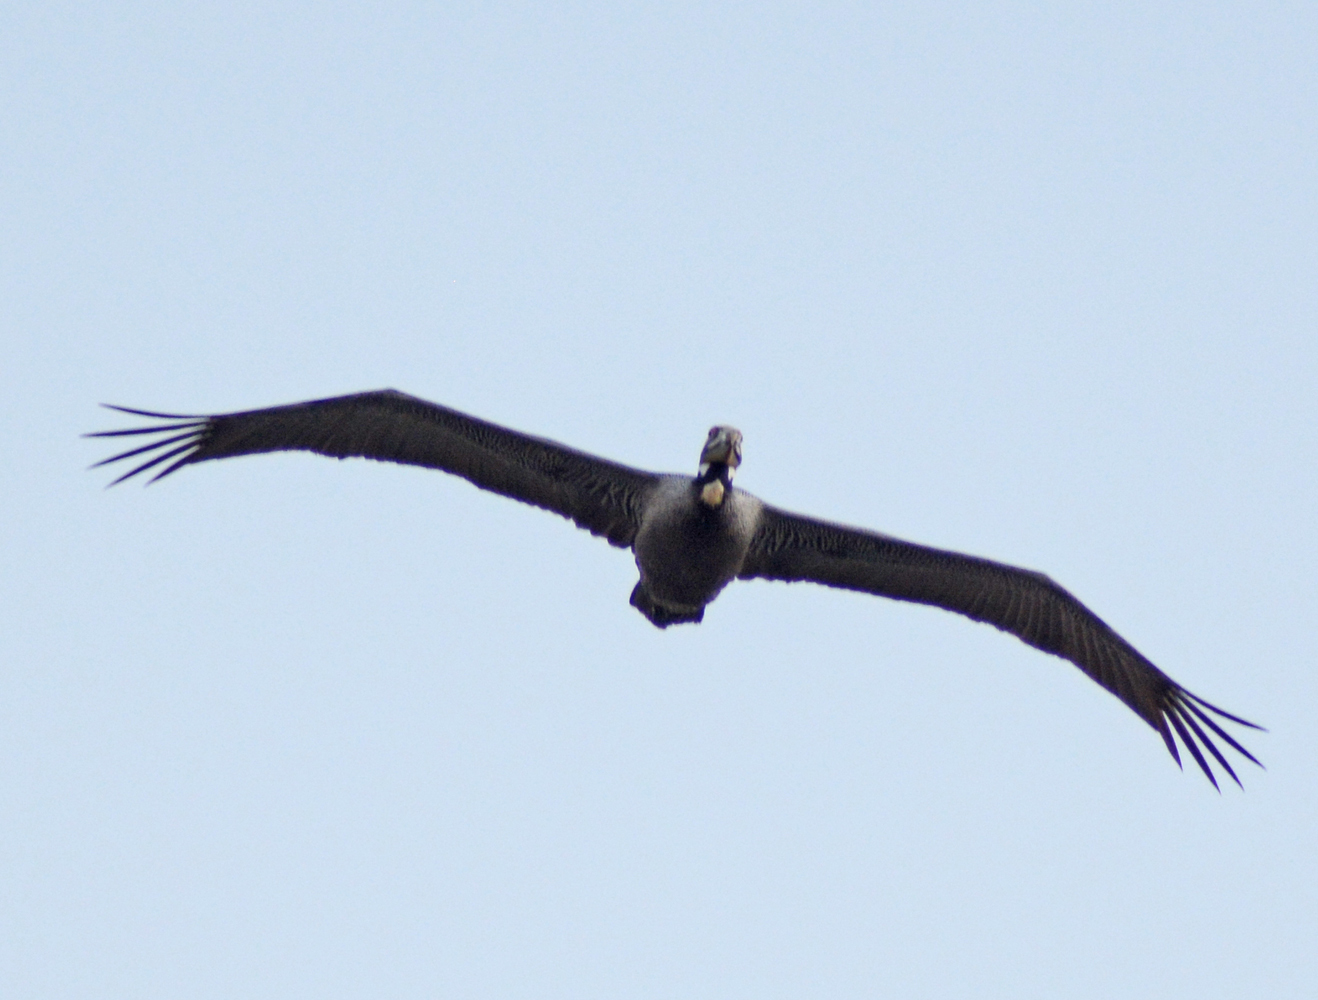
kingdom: Animalia
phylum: Chordata
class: Aves
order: Pelecaniformes
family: Pelecanidae
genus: Pelecanus
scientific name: Pelecanus occidentalis
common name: Brown pelican
